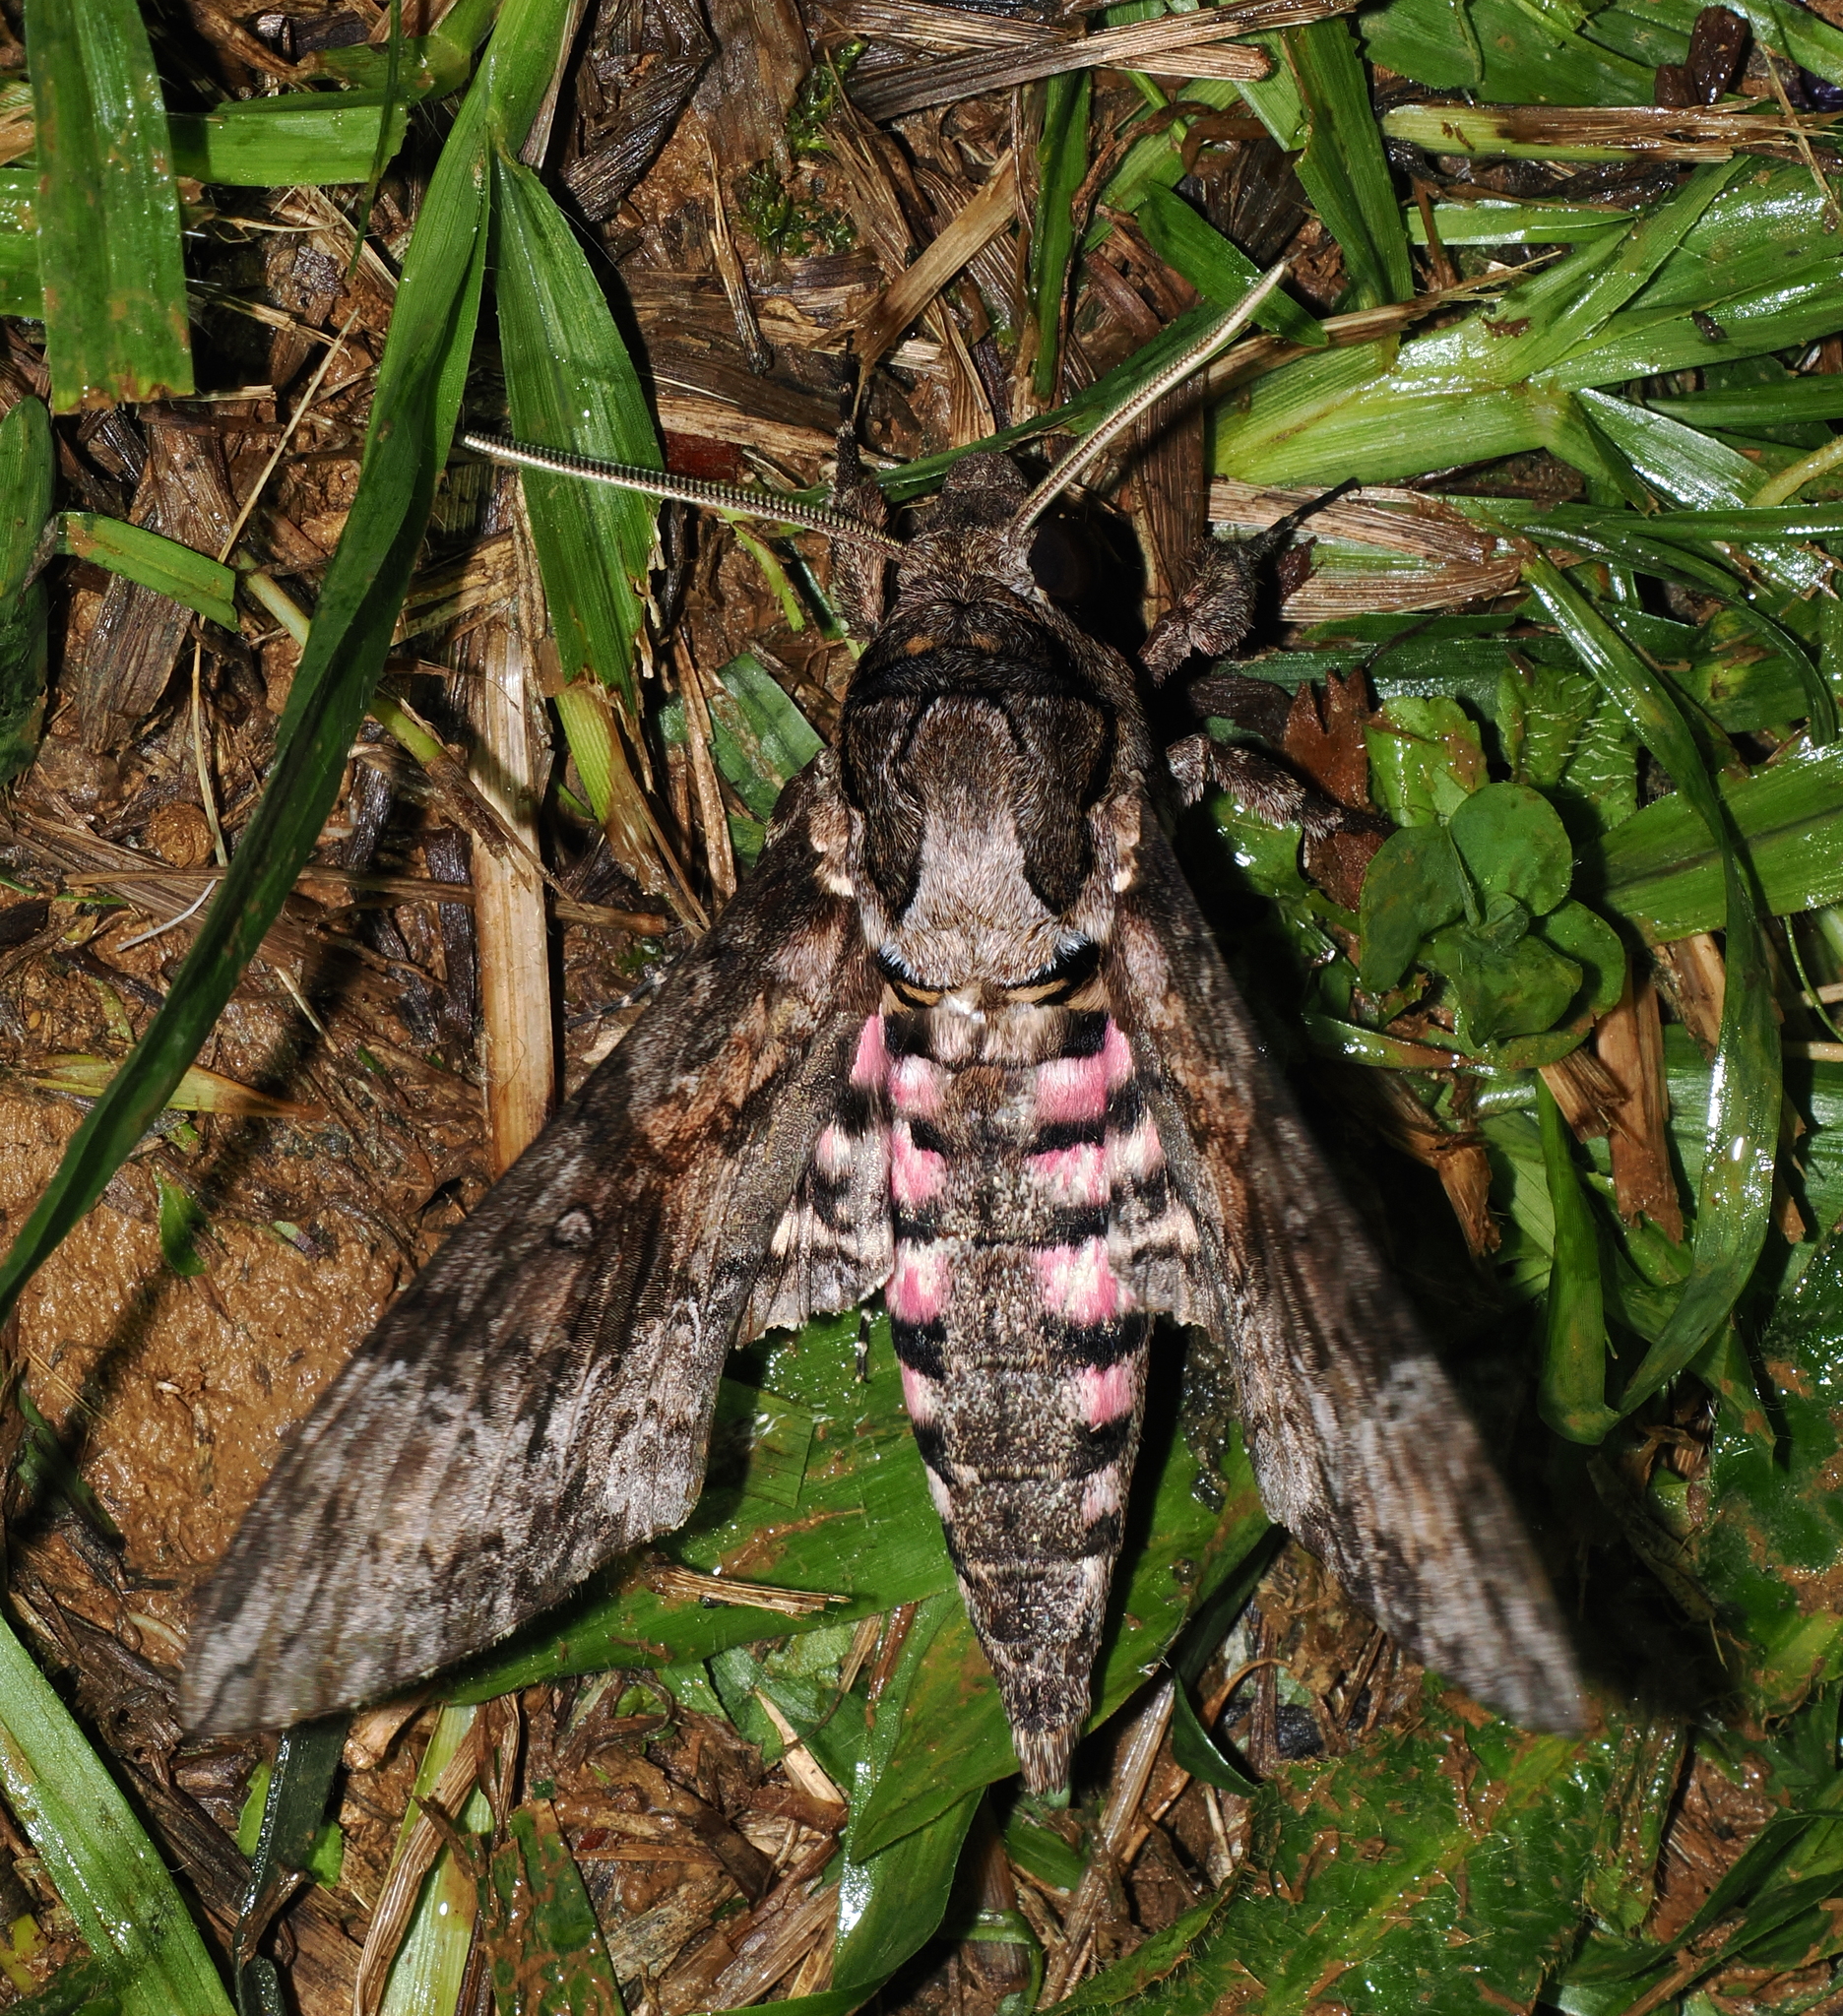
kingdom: Animalia
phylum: Arthropoda
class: Insecta
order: Lepidoptera
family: Sphingidae
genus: Agrius
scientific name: Agrius cingulata
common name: Pink-spotted hawkmoth
